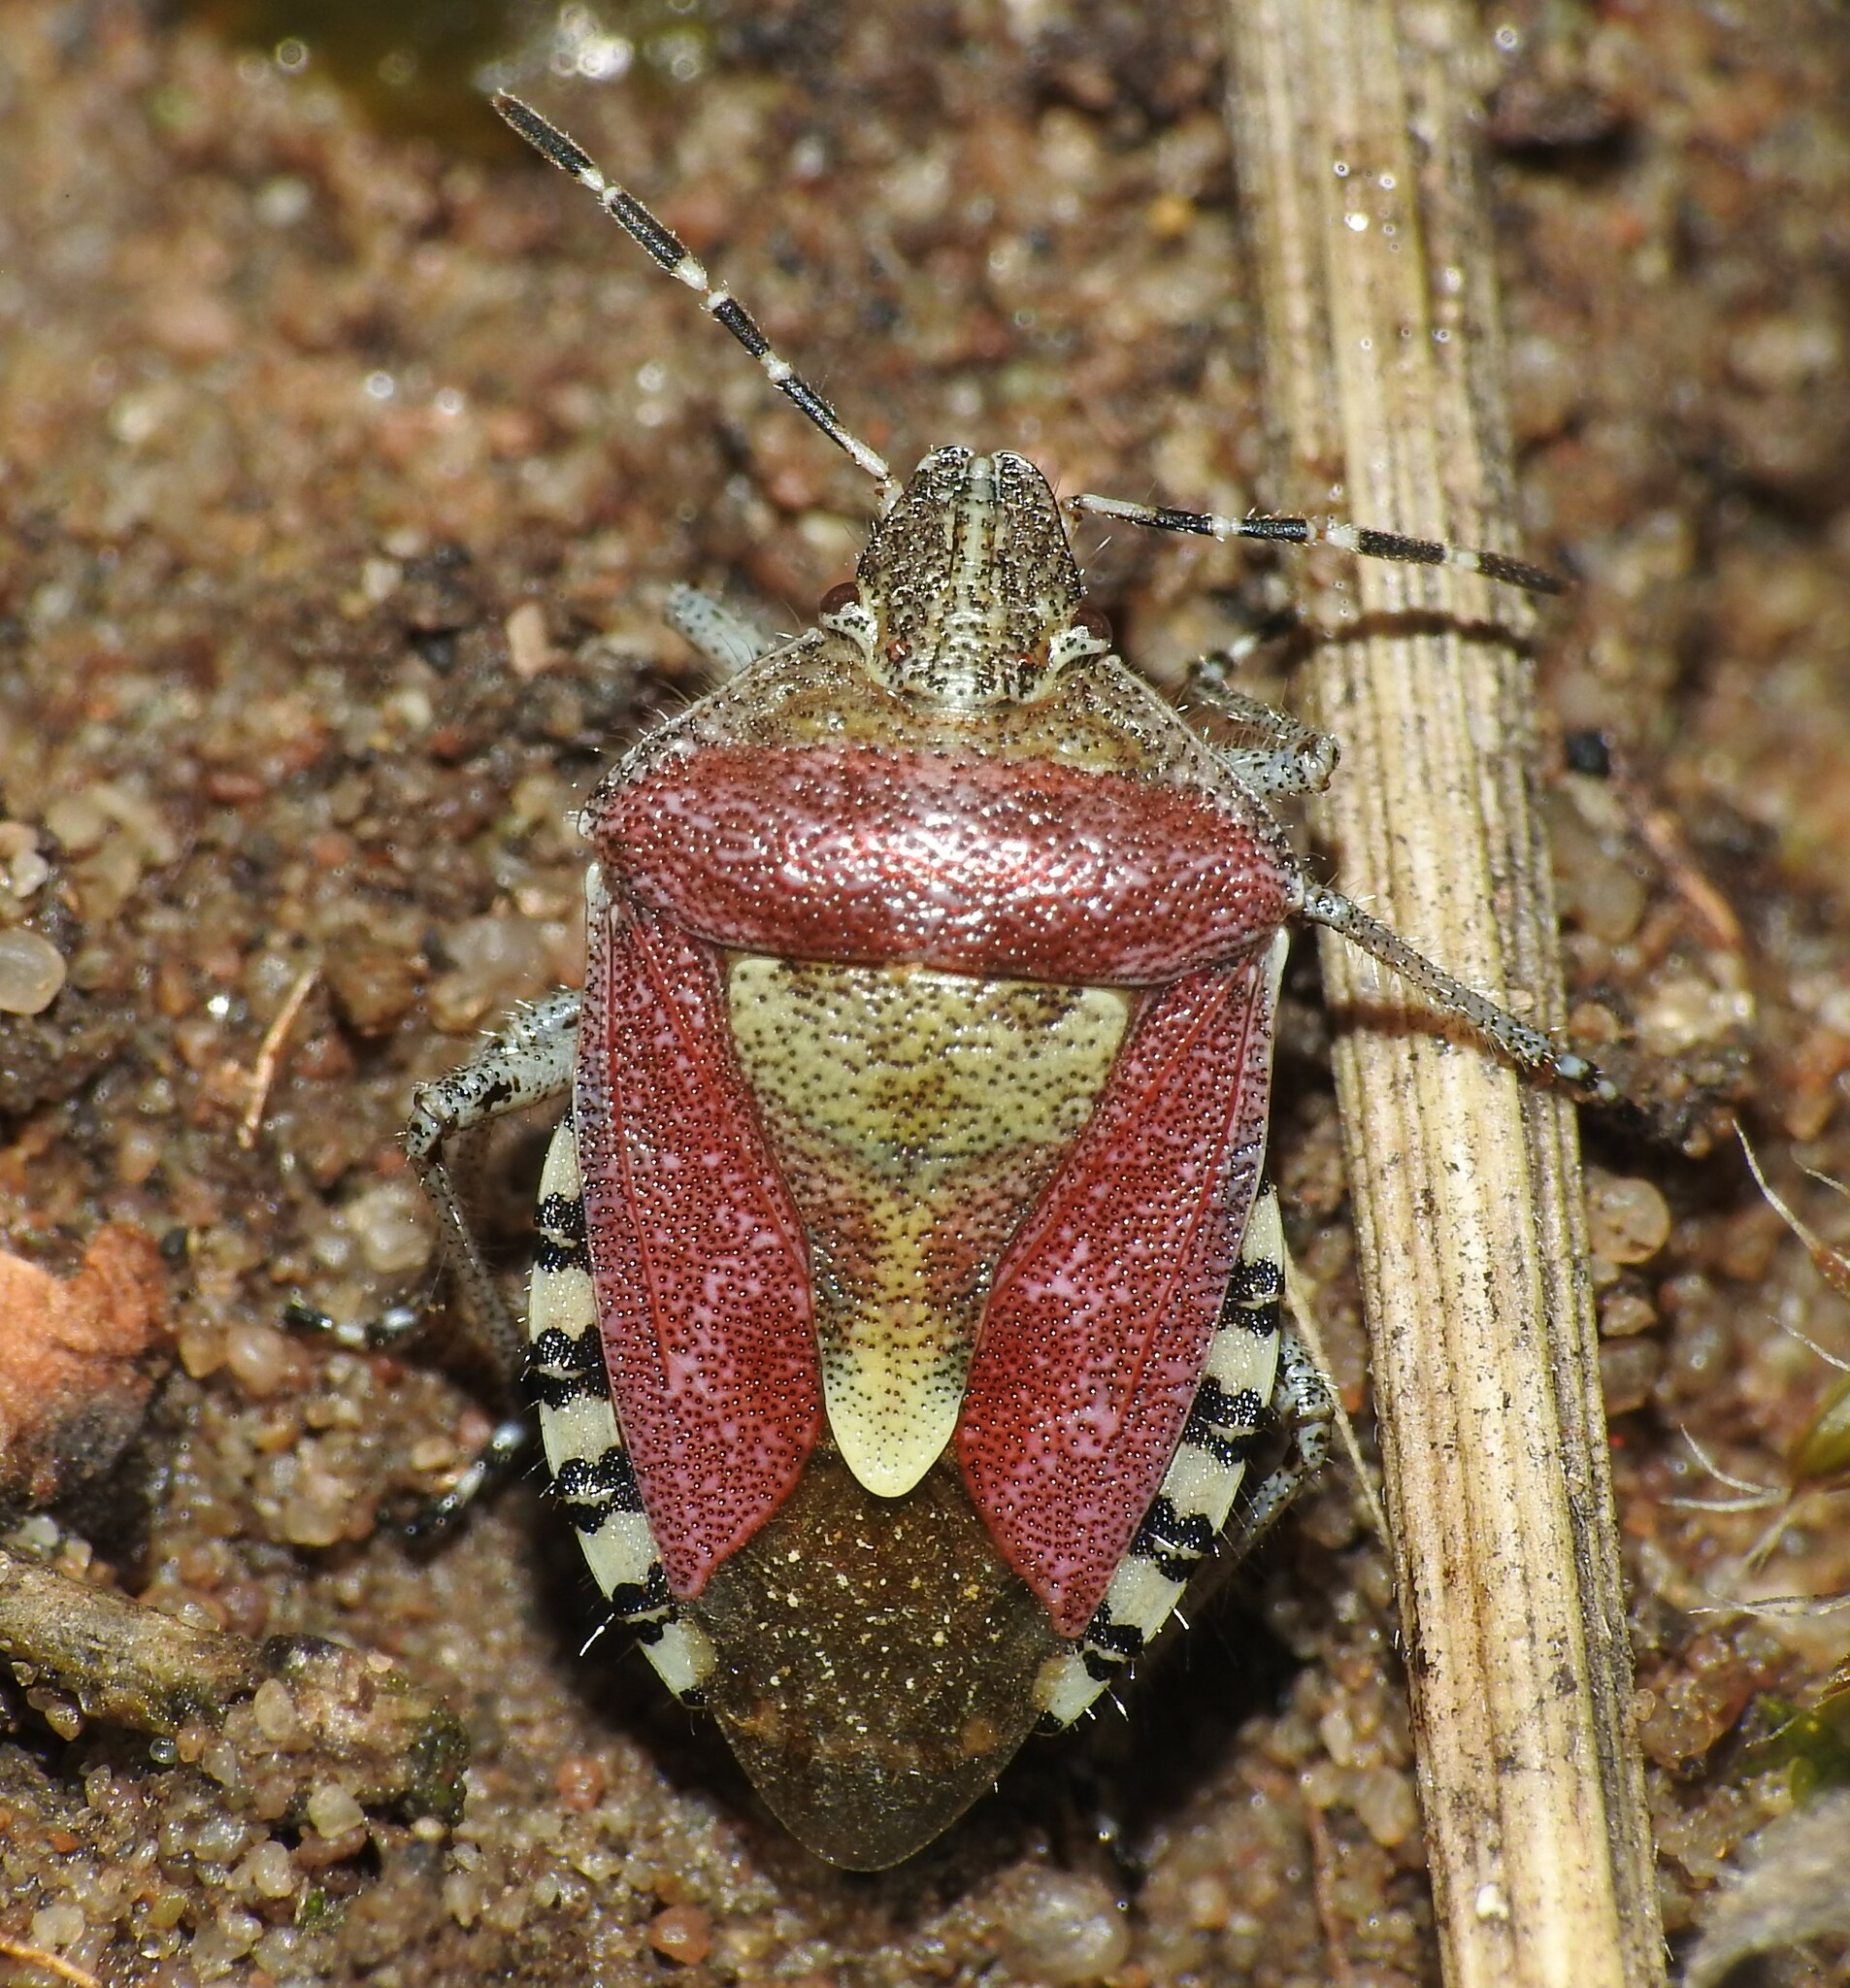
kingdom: Animalia
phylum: Arthropoda
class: Insecta
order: Hemiptera
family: Pentatomidae
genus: Dolycoris
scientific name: Dolycoris baccarum
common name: Sloe bug
